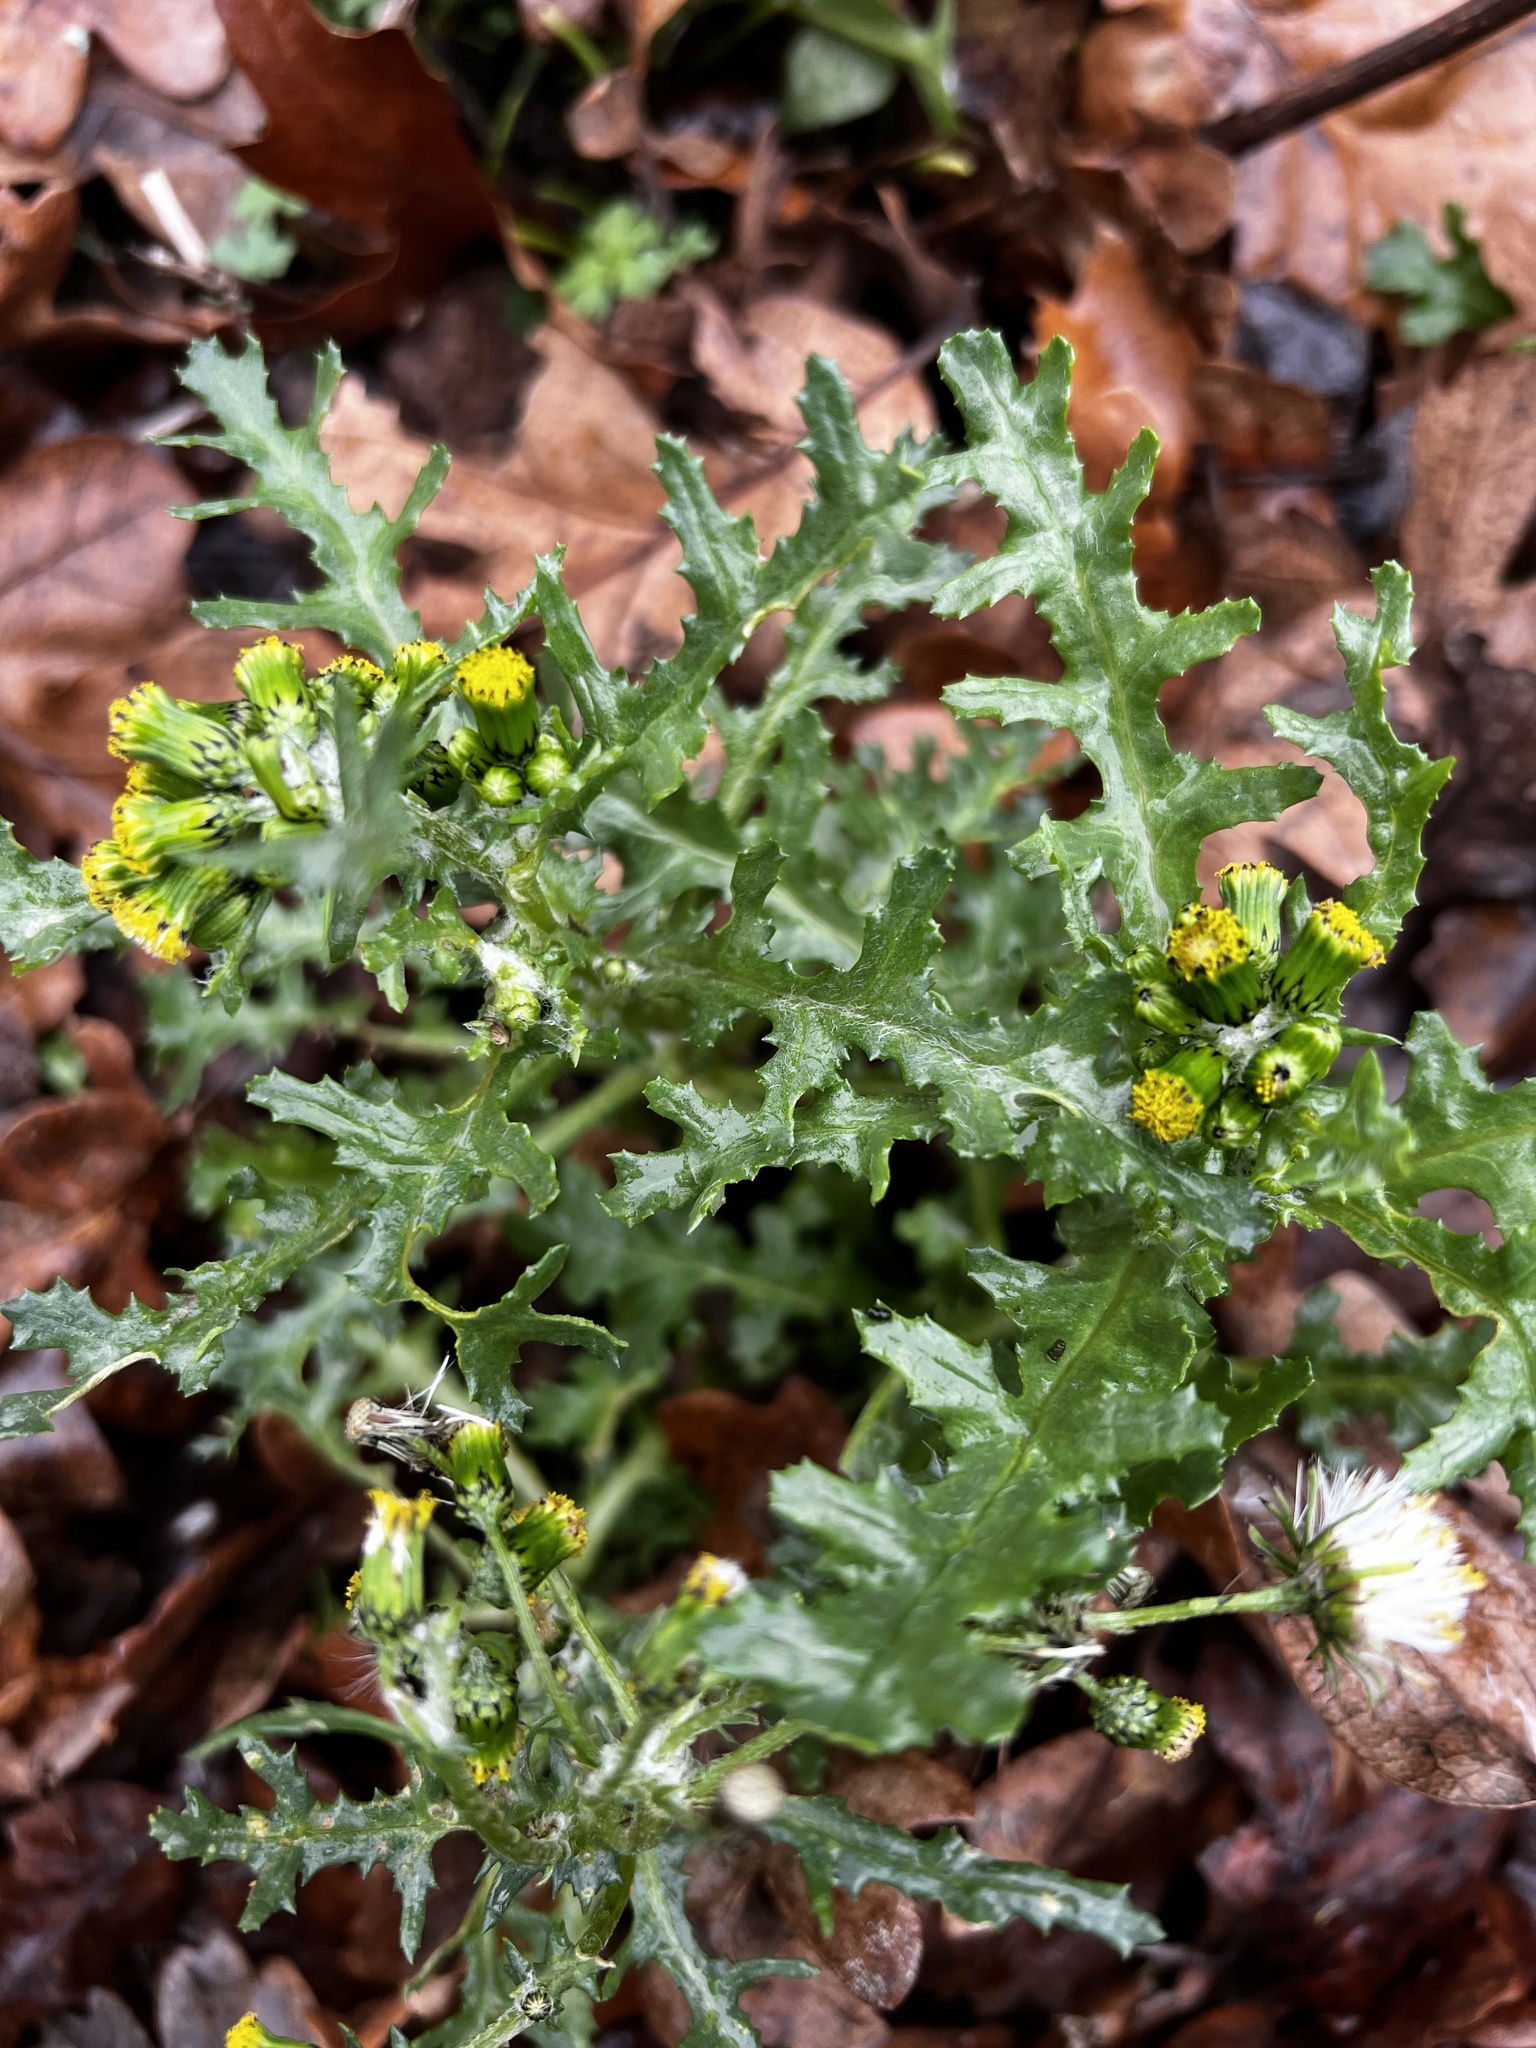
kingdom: Plantae
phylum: Tracheophyta
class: Magnoliopsida
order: Asterales
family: Asteraceae
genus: Senecio
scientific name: Senecio vulgaris
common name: Old-man-in-the-spring
